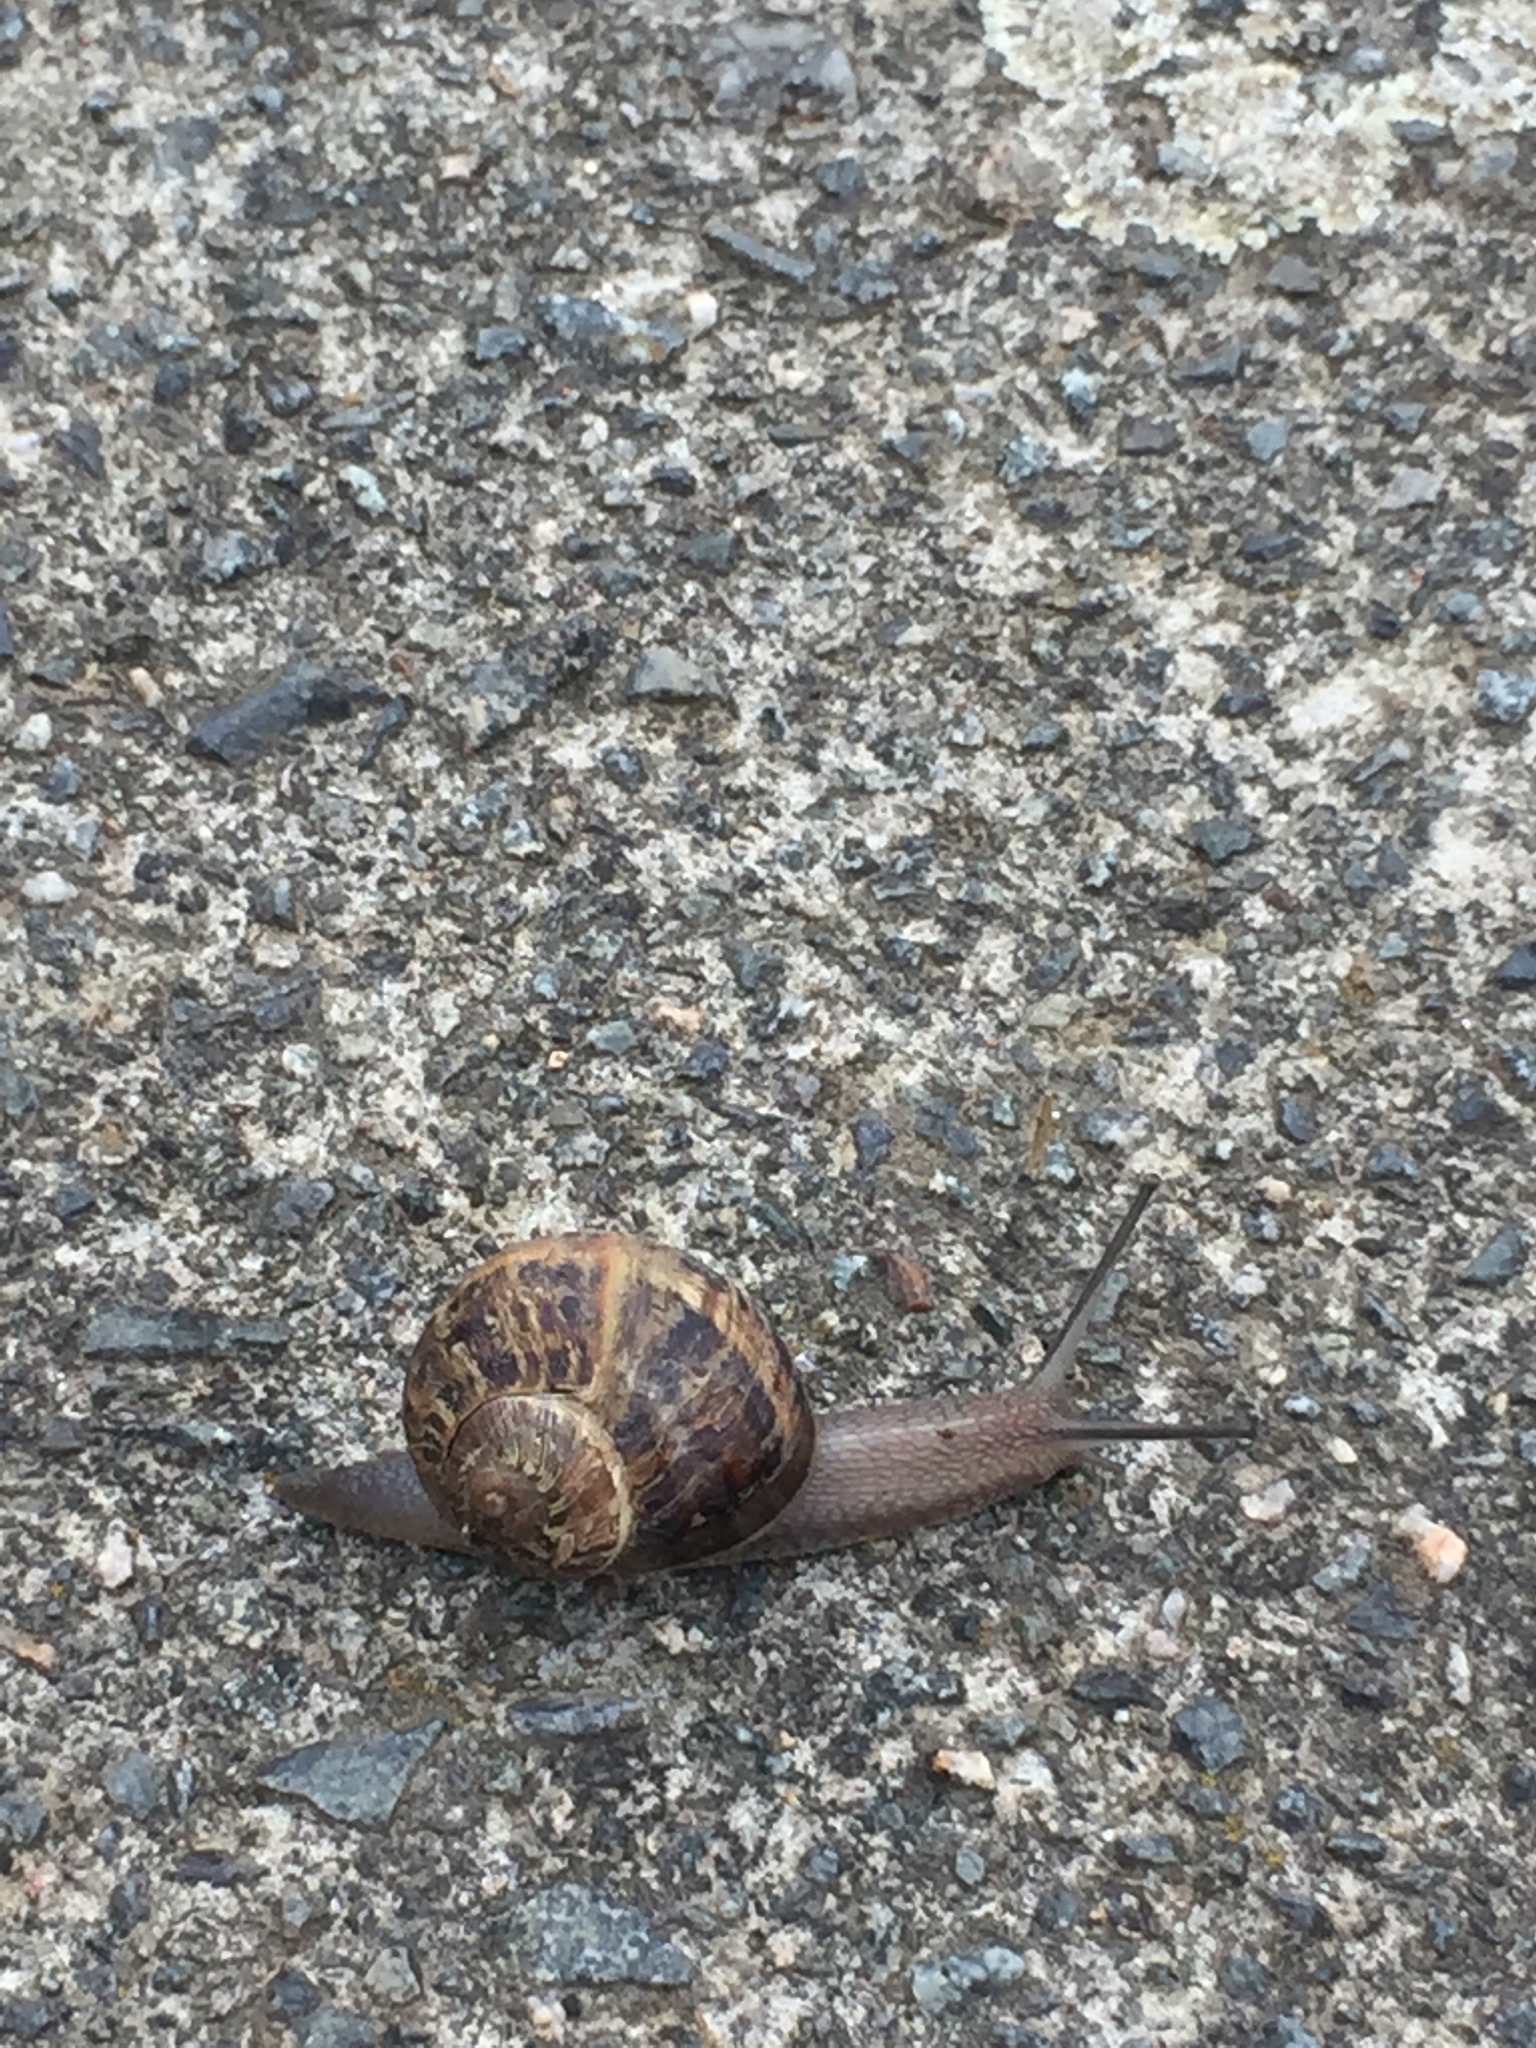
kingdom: Animalia
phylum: Mollusca
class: Gastropoda
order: Stylommatophora
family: Helicidae
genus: Cornu
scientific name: Cornu aspersum
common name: Brown garden snail
